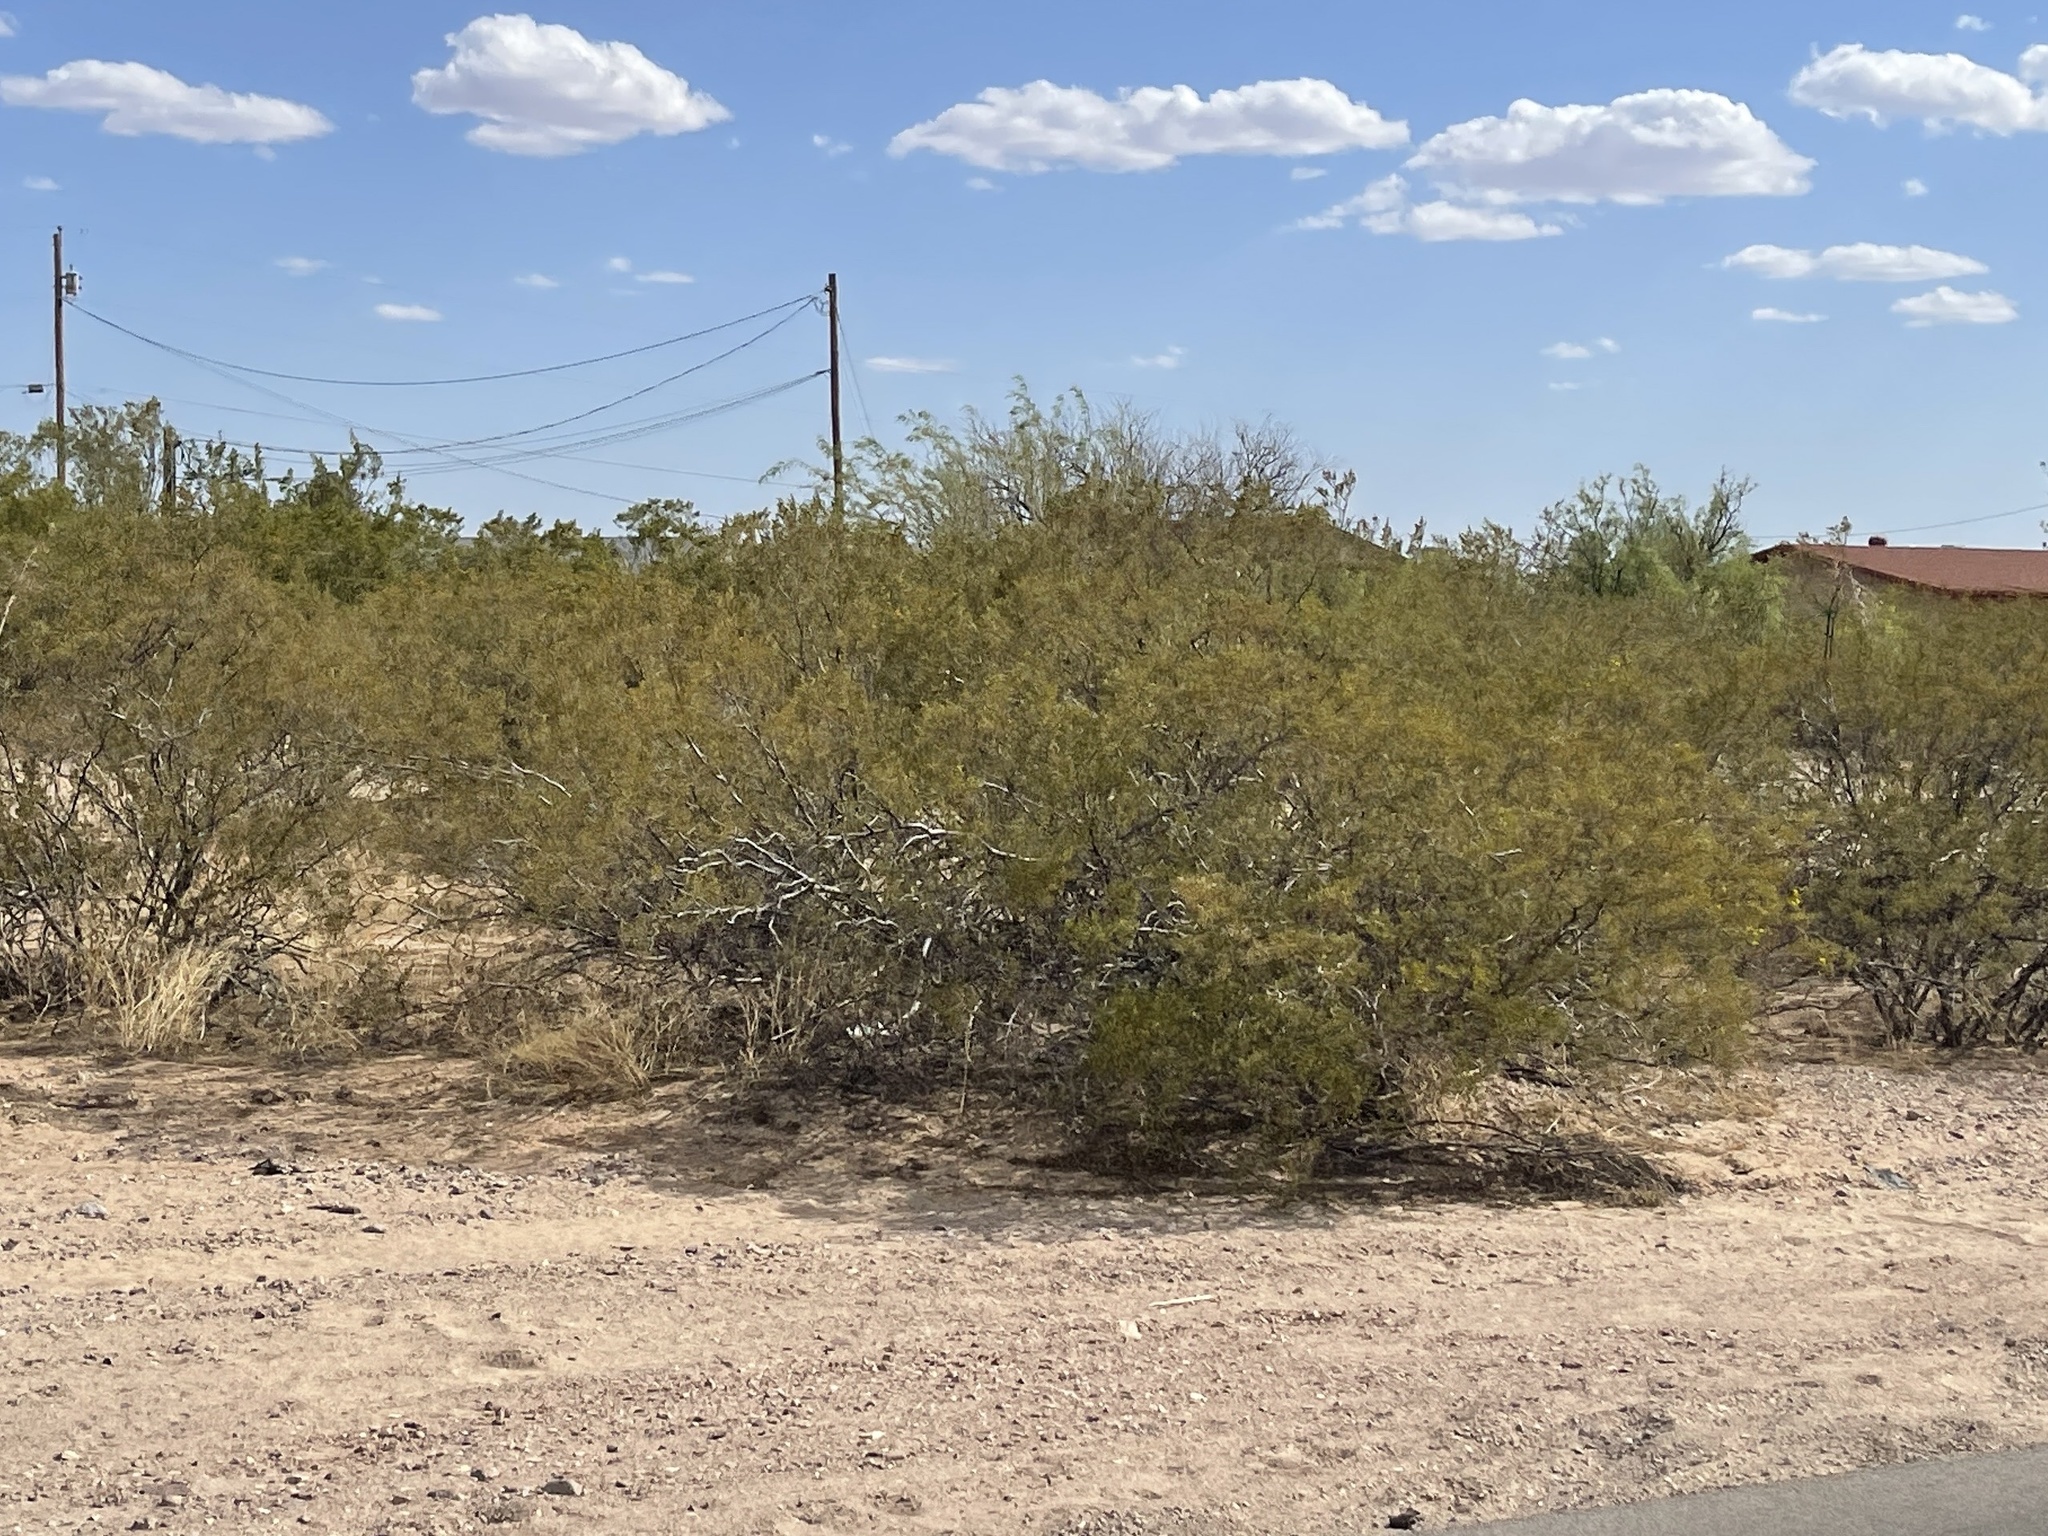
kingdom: Plantae
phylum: Tracheophyta
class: Magnoliopsida
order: Zygophyllales
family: Zygophyllaceae
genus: Larrea
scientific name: Larrea tridentata
